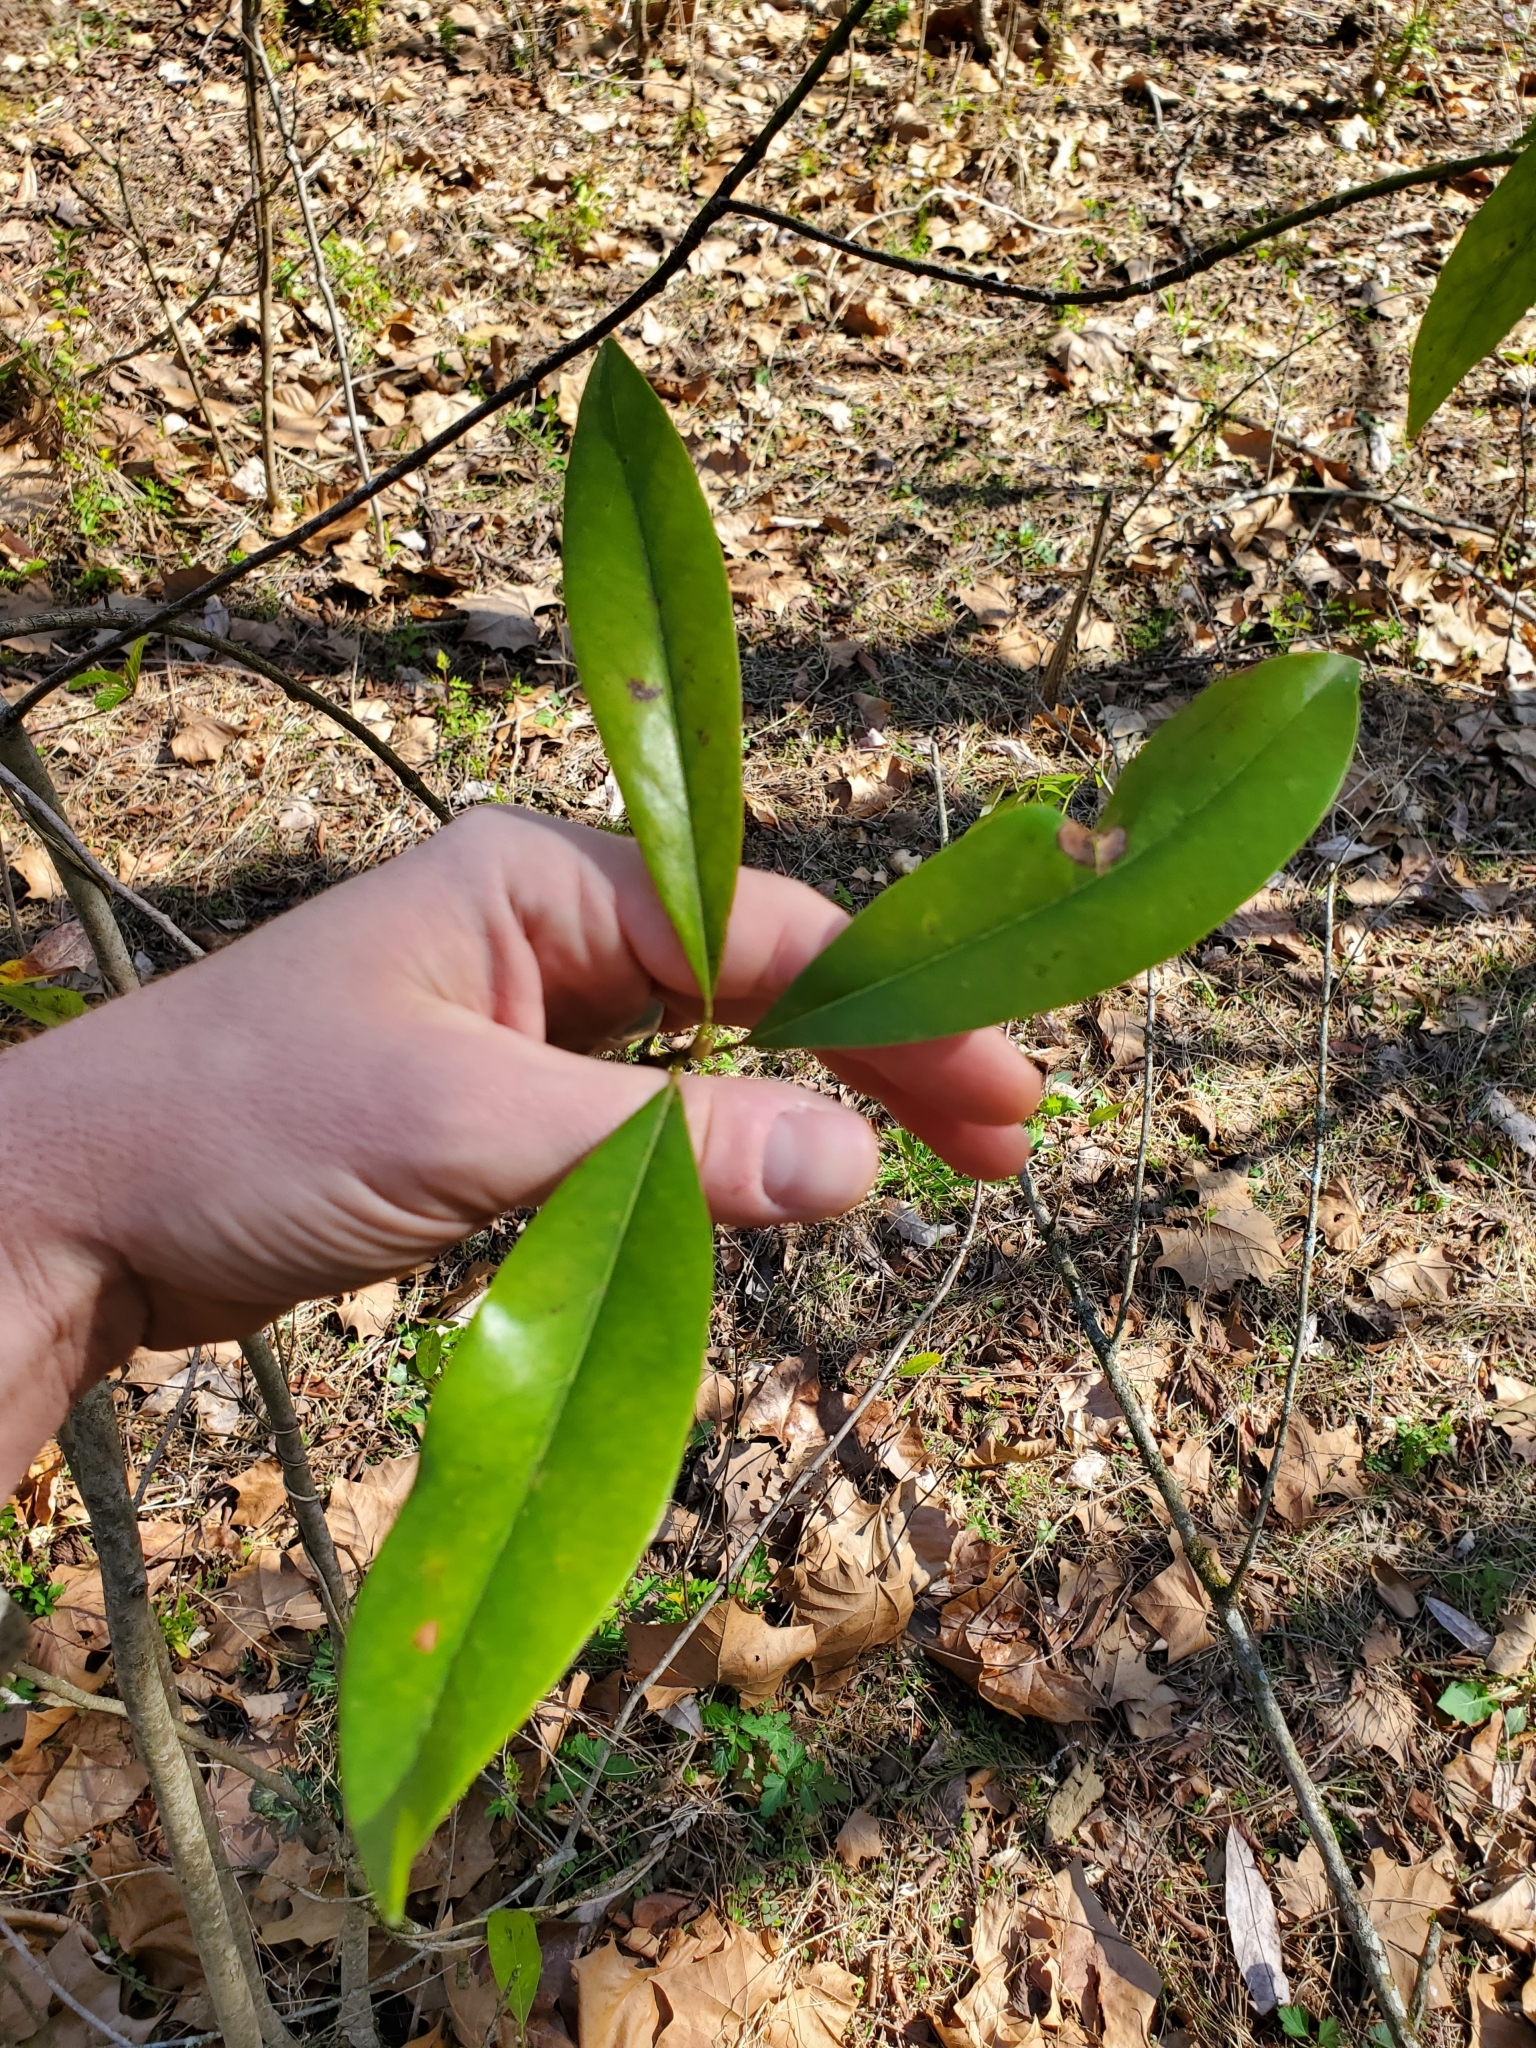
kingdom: Plantae
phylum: Tracheophyta
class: Magnoliopsida
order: Magnoliales
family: Magnoliaceae
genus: Magnolia
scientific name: Magnolia virginiana
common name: Swamp bay
